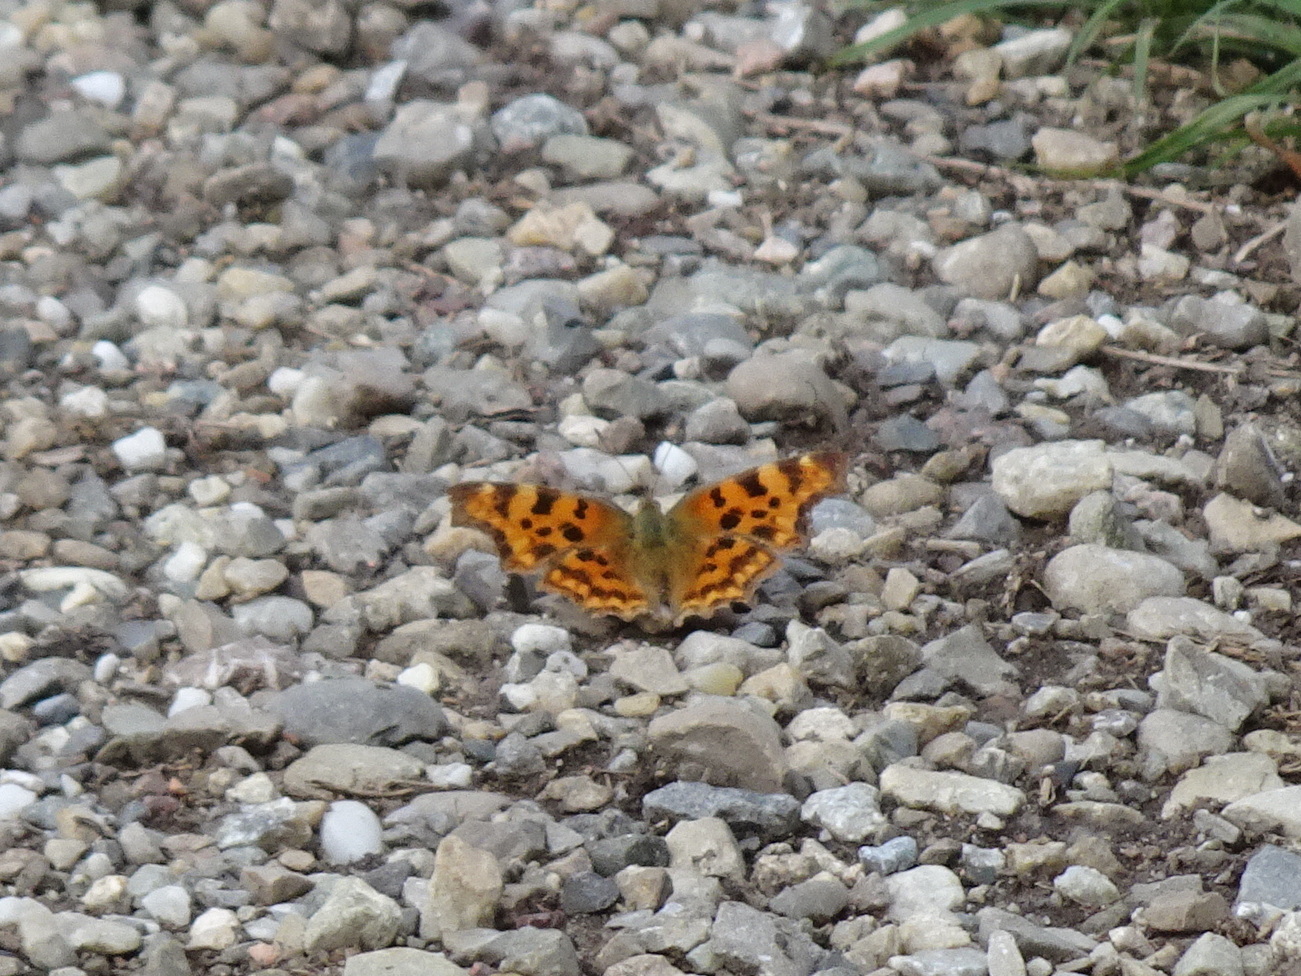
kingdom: Animalia
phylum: Arthropoda
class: Insecta
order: Lepidoptera
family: Nymphalidae
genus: Polygonia
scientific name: Polygonia c-album
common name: Comma
